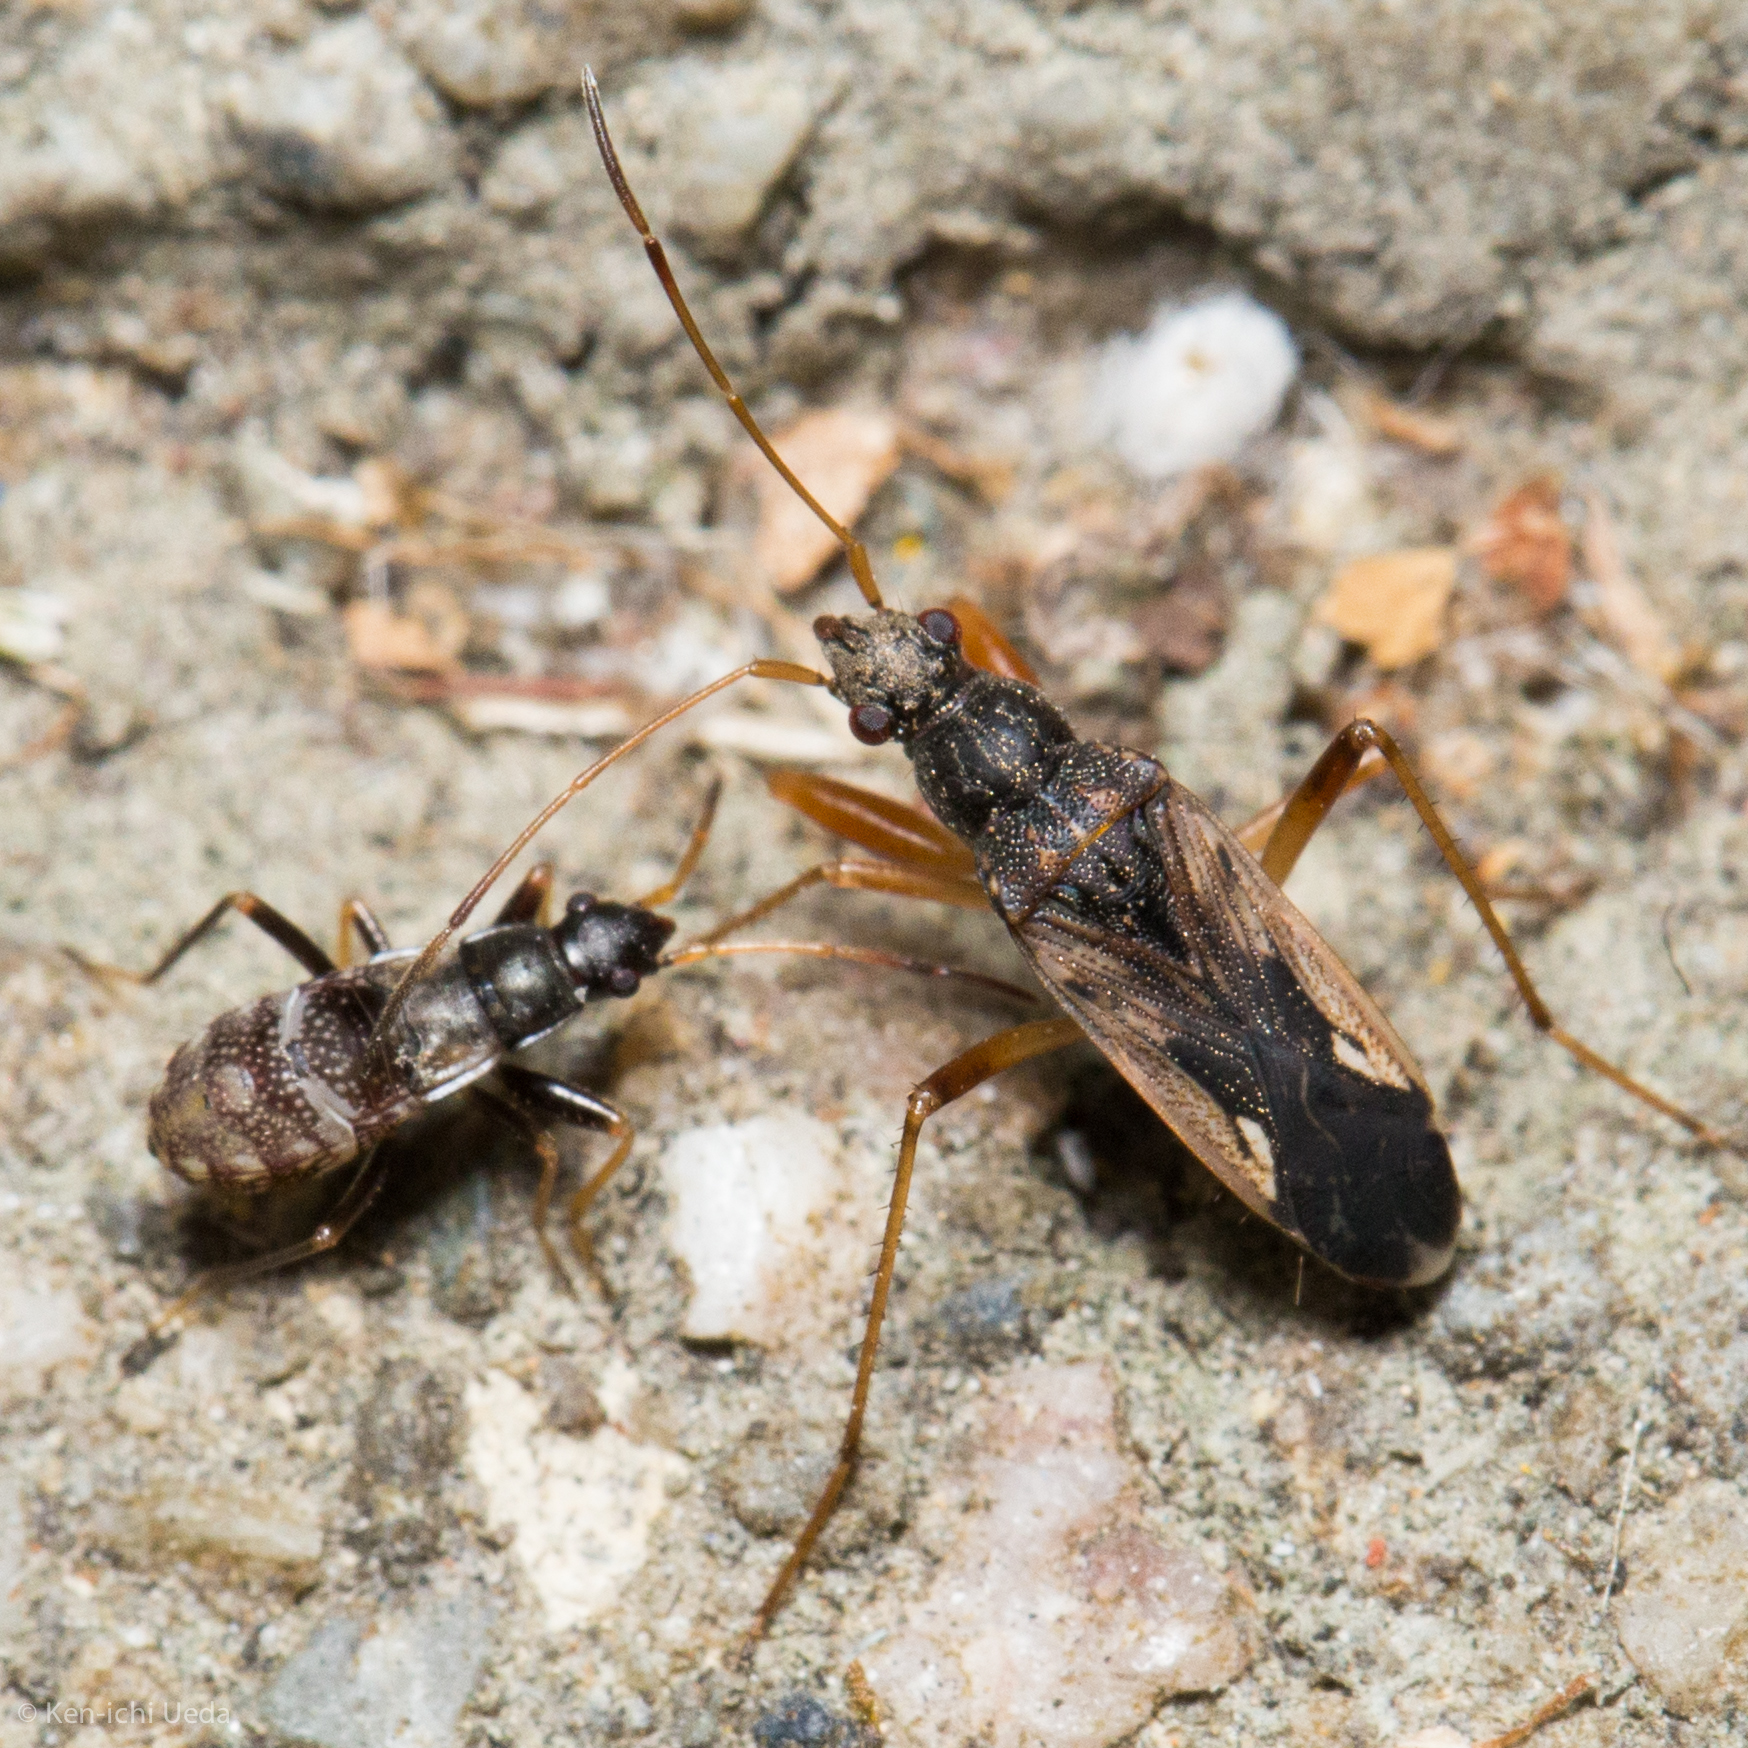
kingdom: Animalia
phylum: Arthropoda
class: Insecta
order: Hemiptera
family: Rhyparochromidae
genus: Ligyrocoris
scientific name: Ligyrocoris latimarginatus
